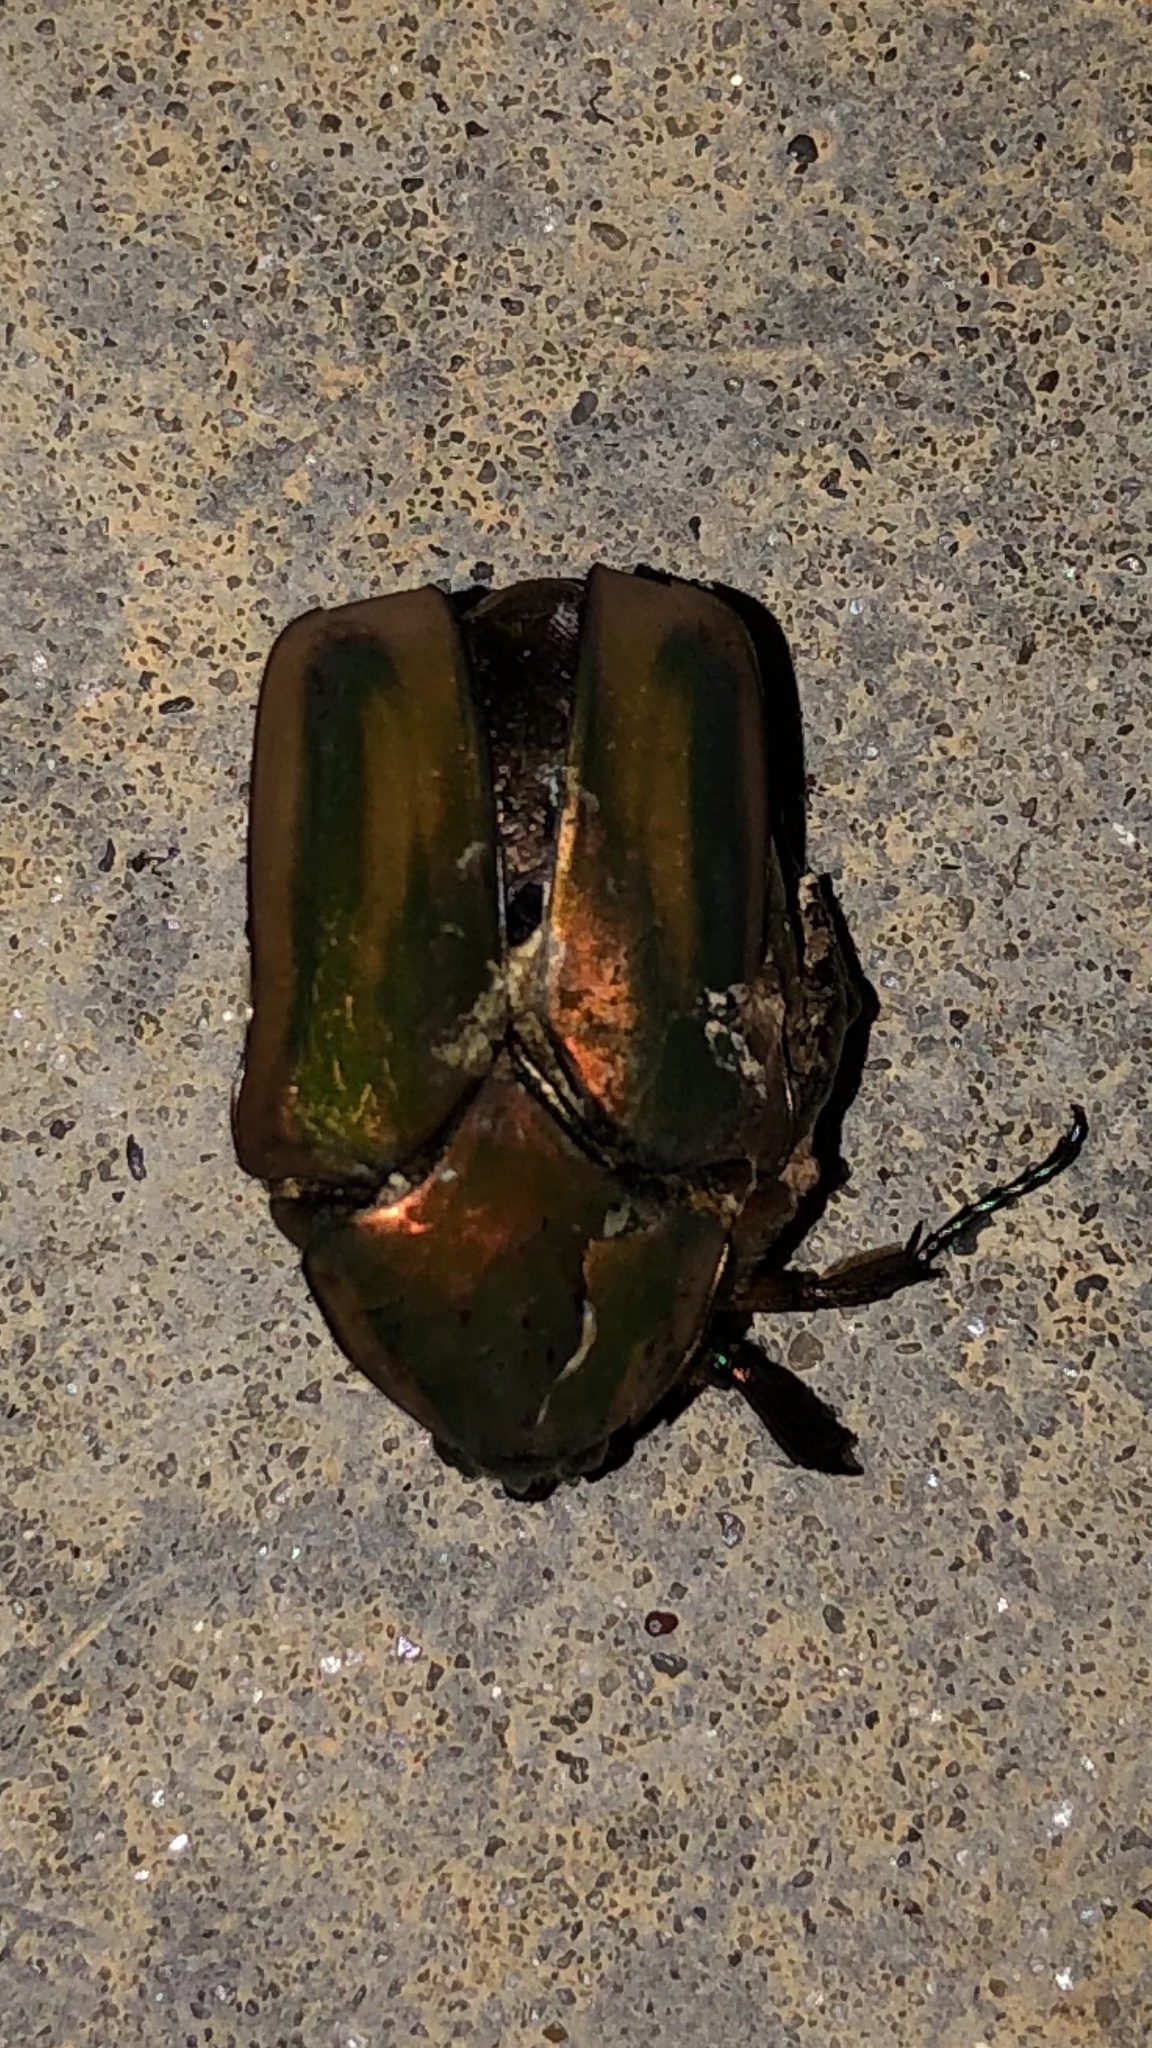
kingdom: Animalia
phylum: Arthropoda
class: Insecta
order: Coleoptera
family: Scarabaeidae
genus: Cotinis
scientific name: Cotinis nitida
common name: Common green june beetle
